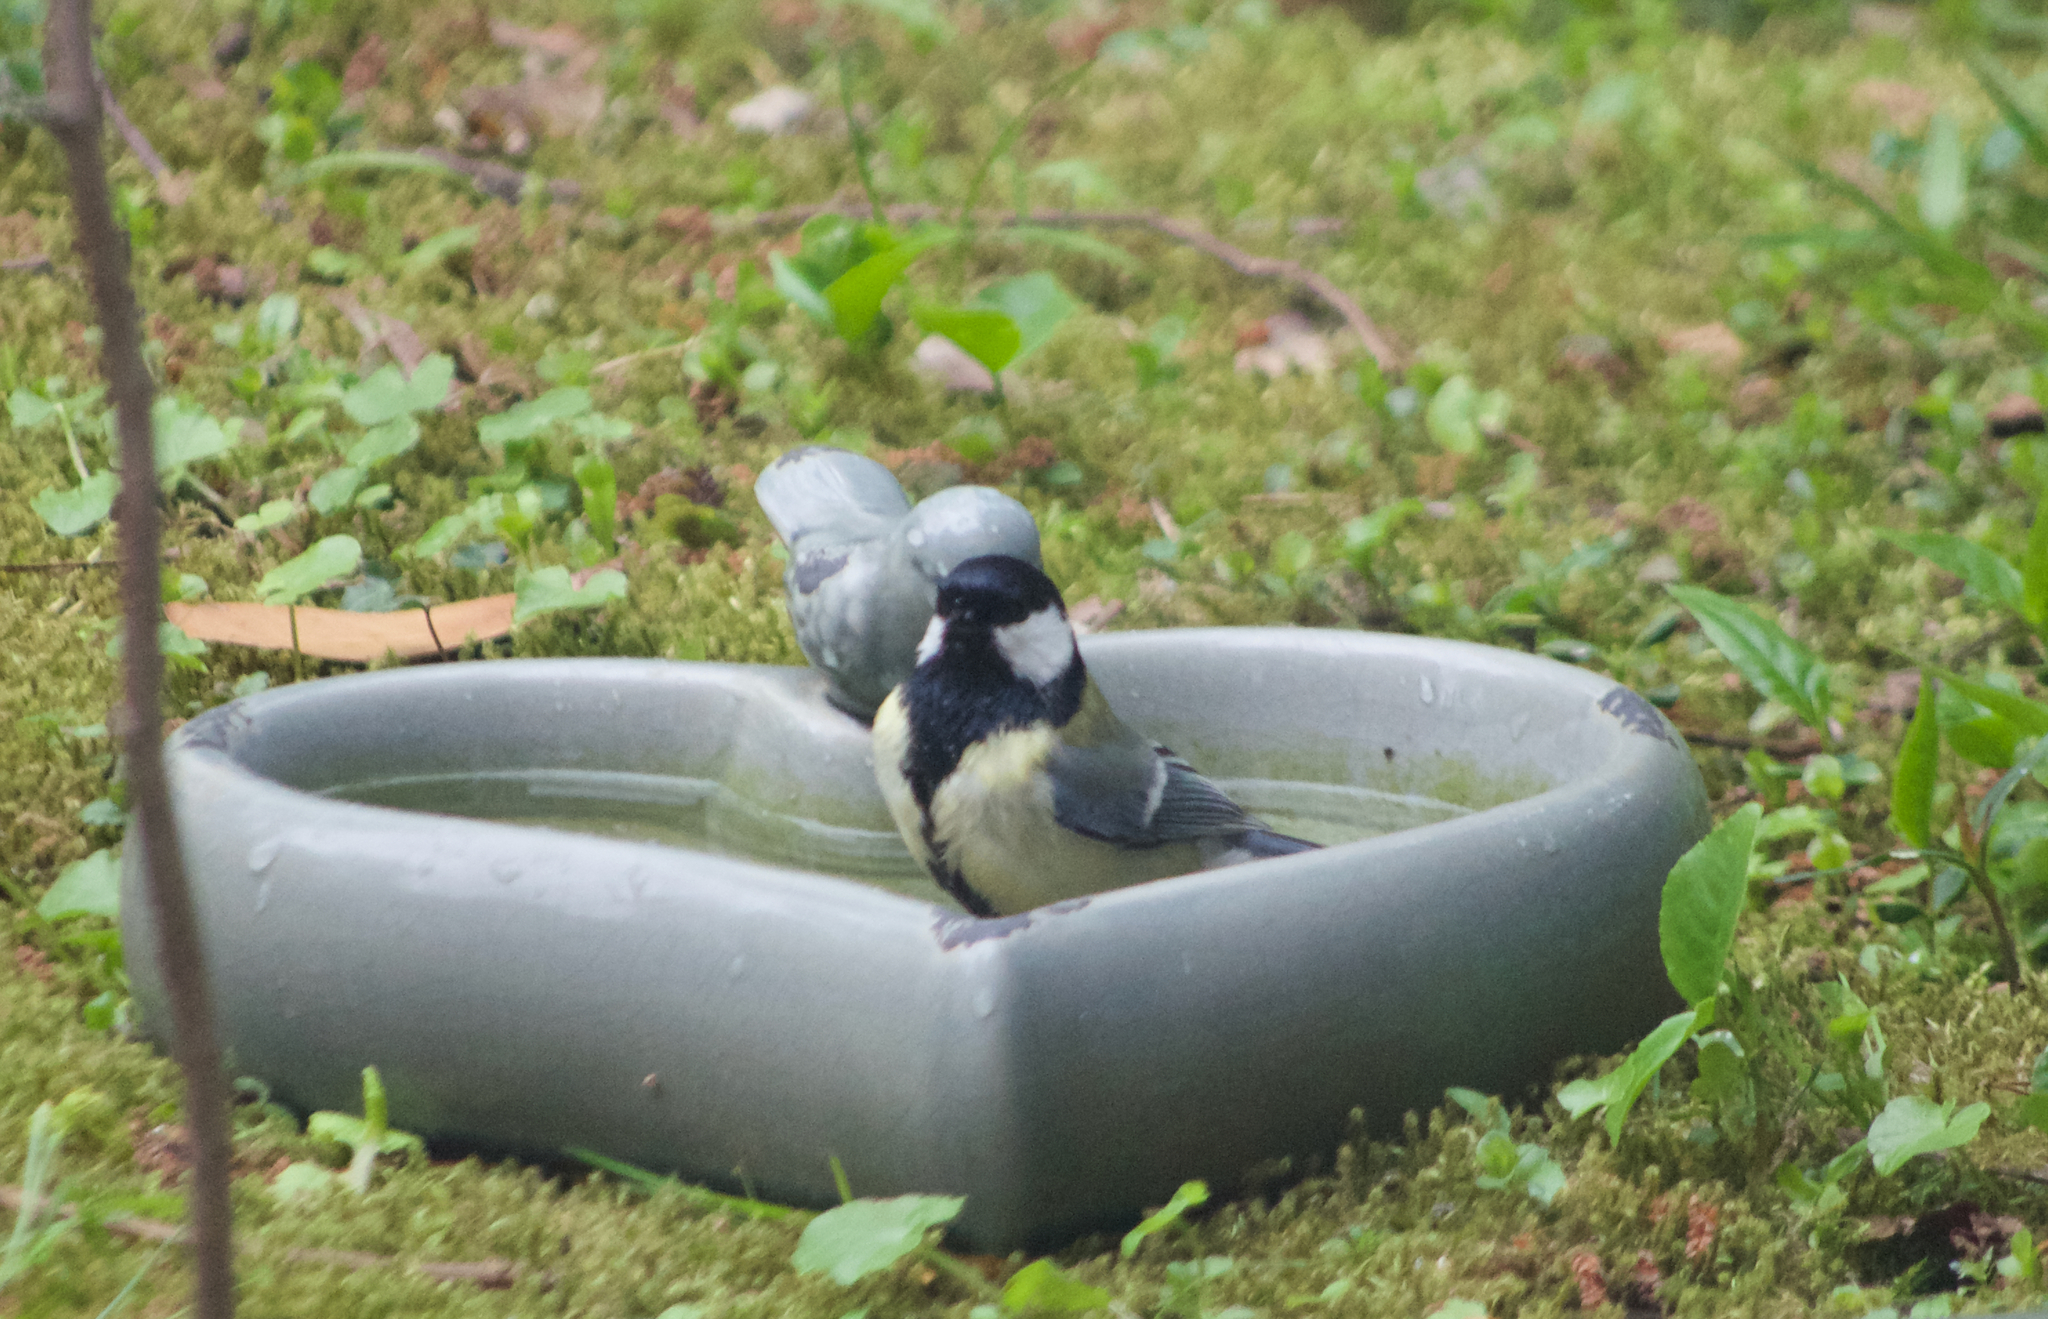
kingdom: Animalia
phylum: Chordata
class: Aves
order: Passeriformes
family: Paridae
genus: Parus
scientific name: Parus major
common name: Great tit
